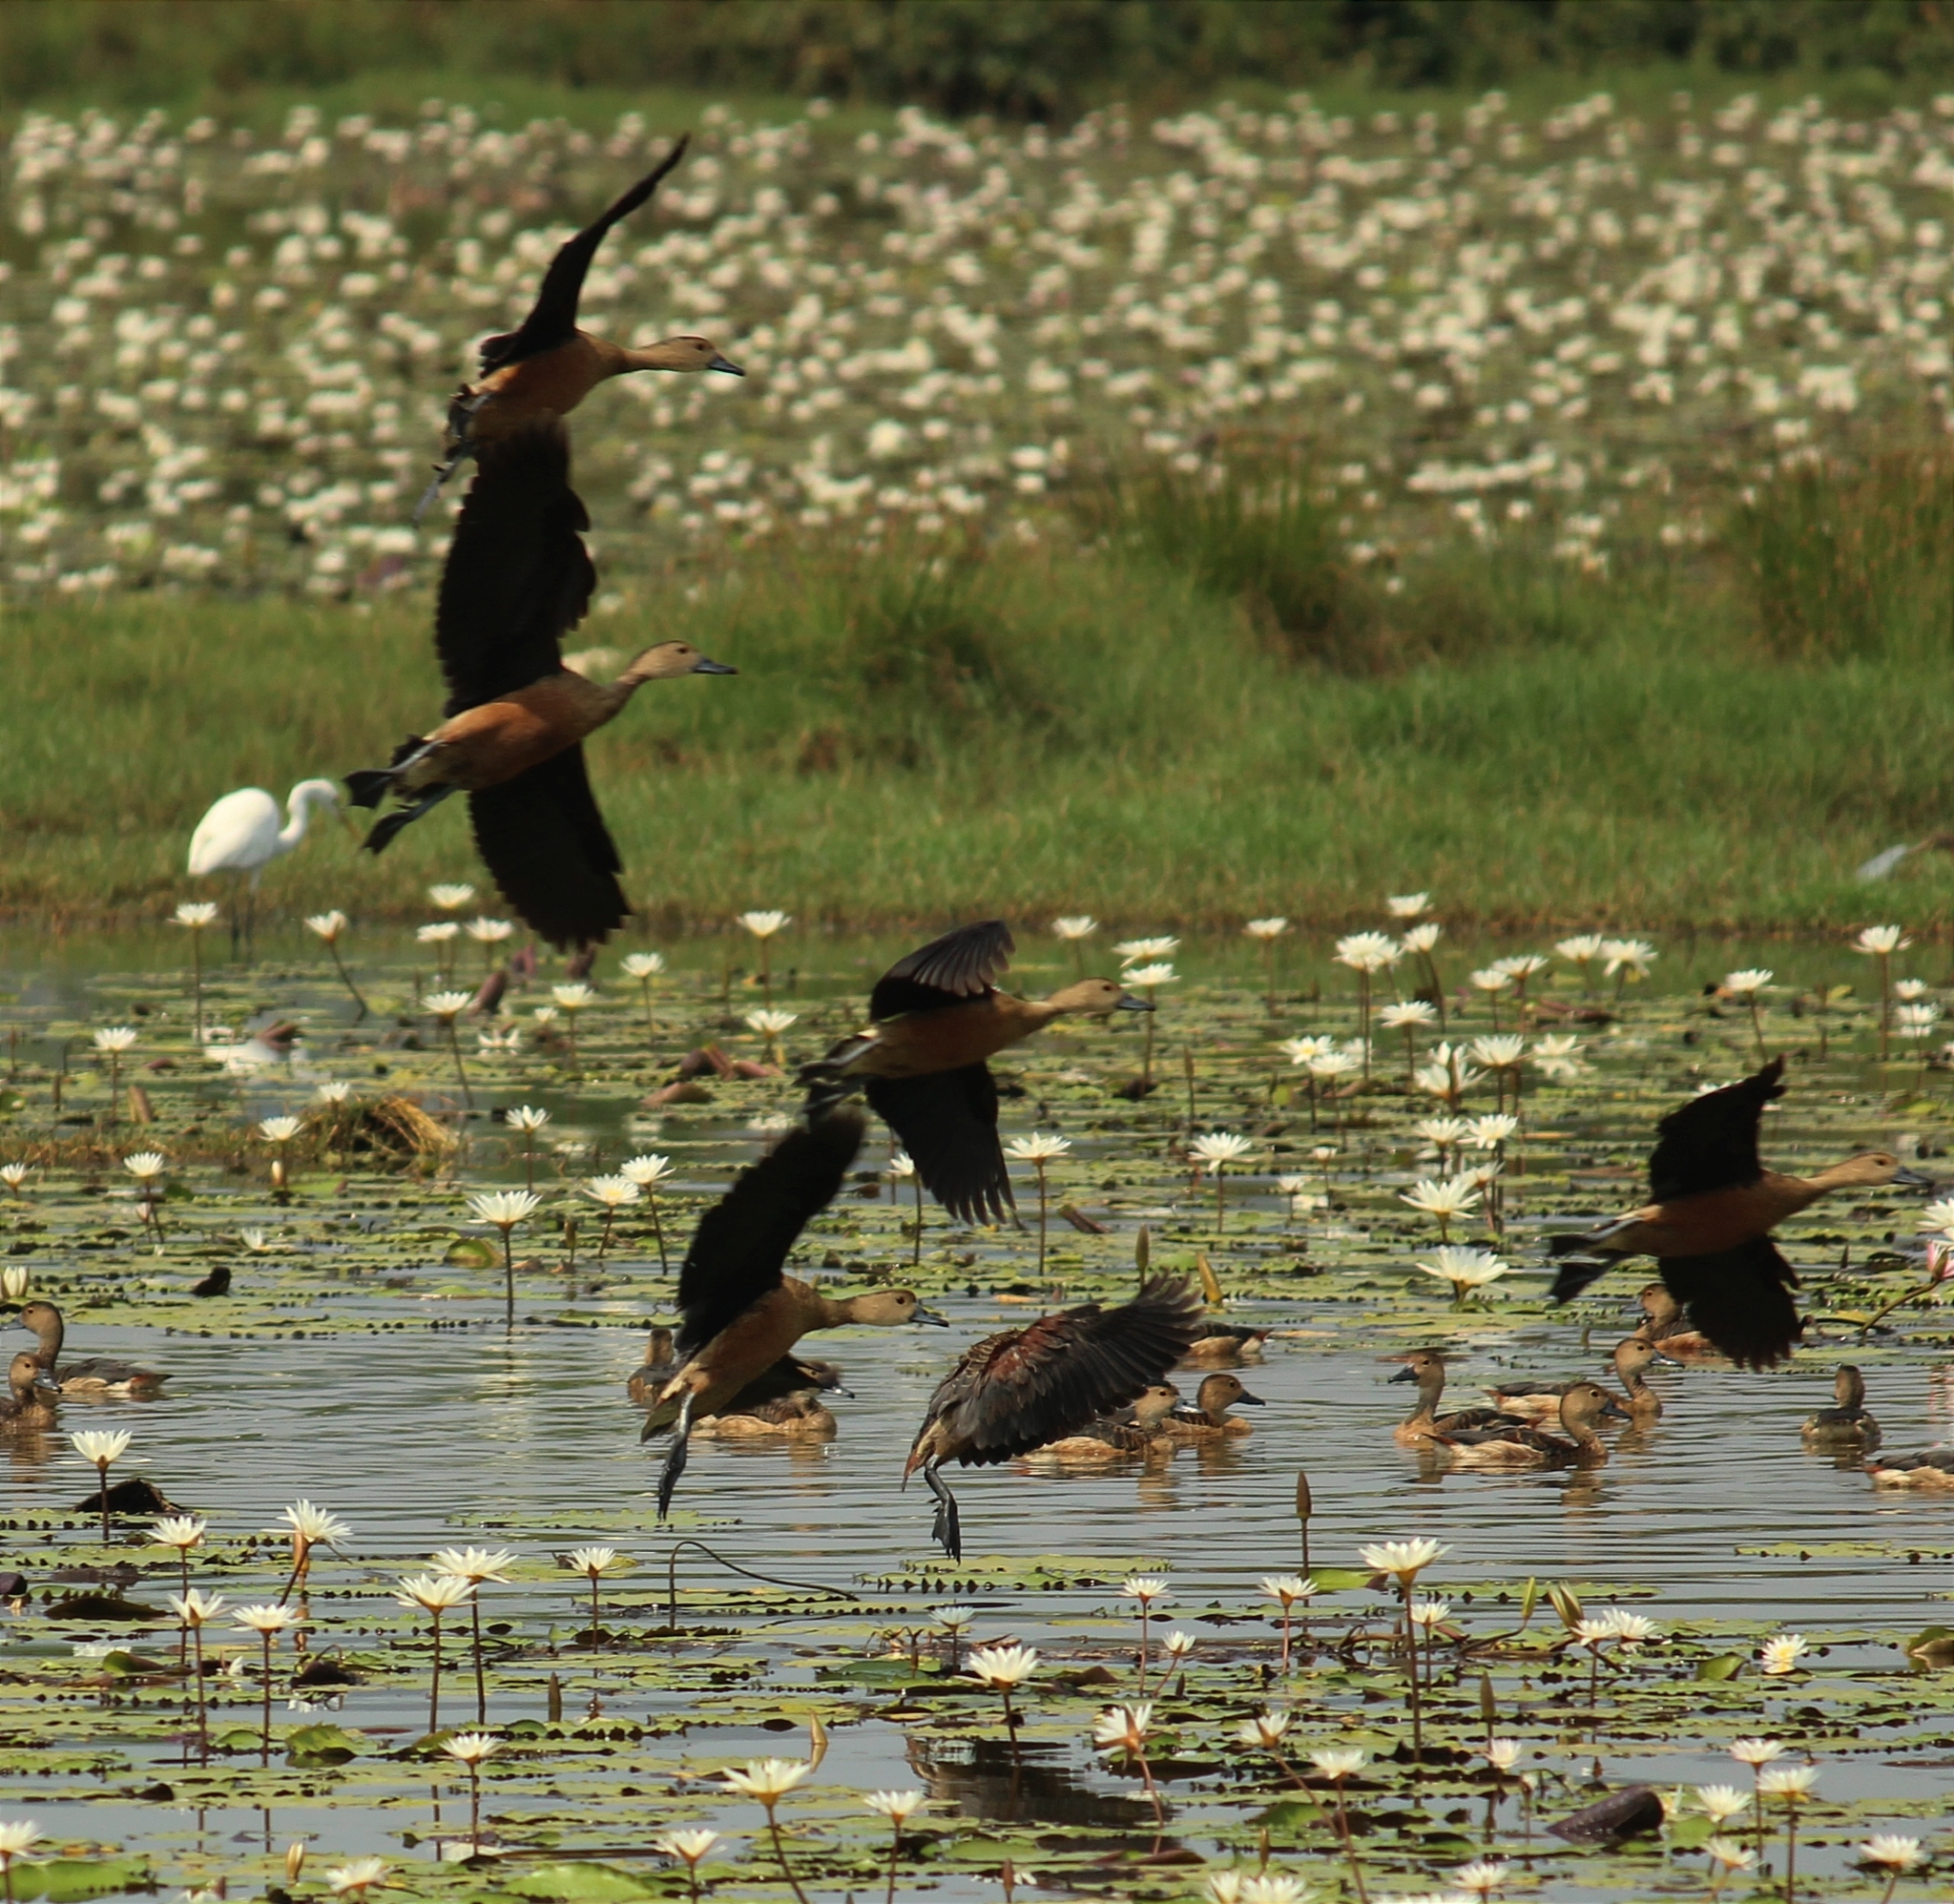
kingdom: Animalia
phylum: Chordata
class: Aves
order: Anseriformes
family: Anatidae
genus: Dendrocygna
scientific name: Dendrocygna javanica
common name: Lesser whistling-duck
